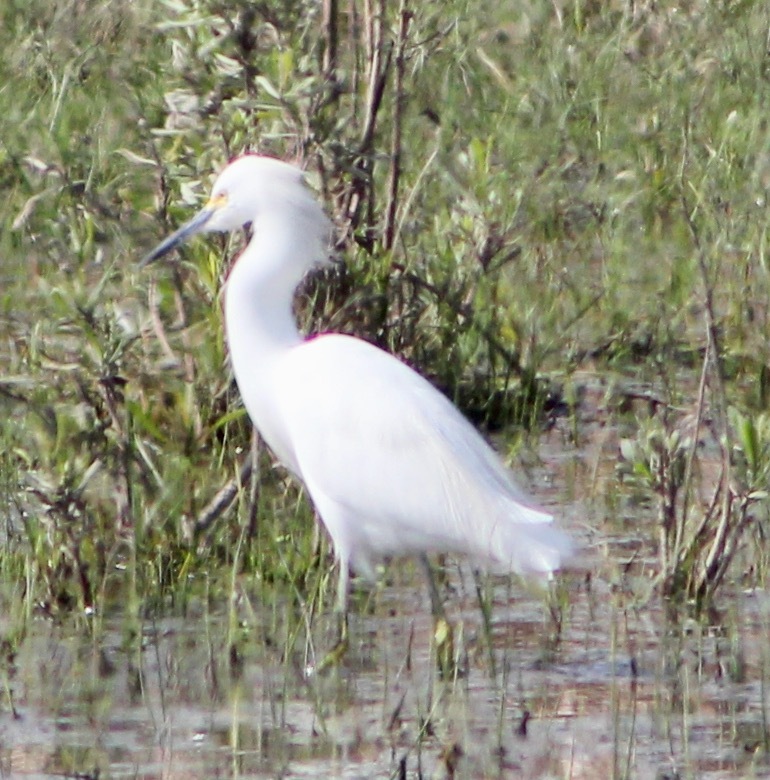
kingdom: Animalia
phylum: Chordata
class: Aves
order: Pelecaniformes
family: Ardeidae
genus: Egretta
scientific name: Egretta thula
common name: Snowy egret
